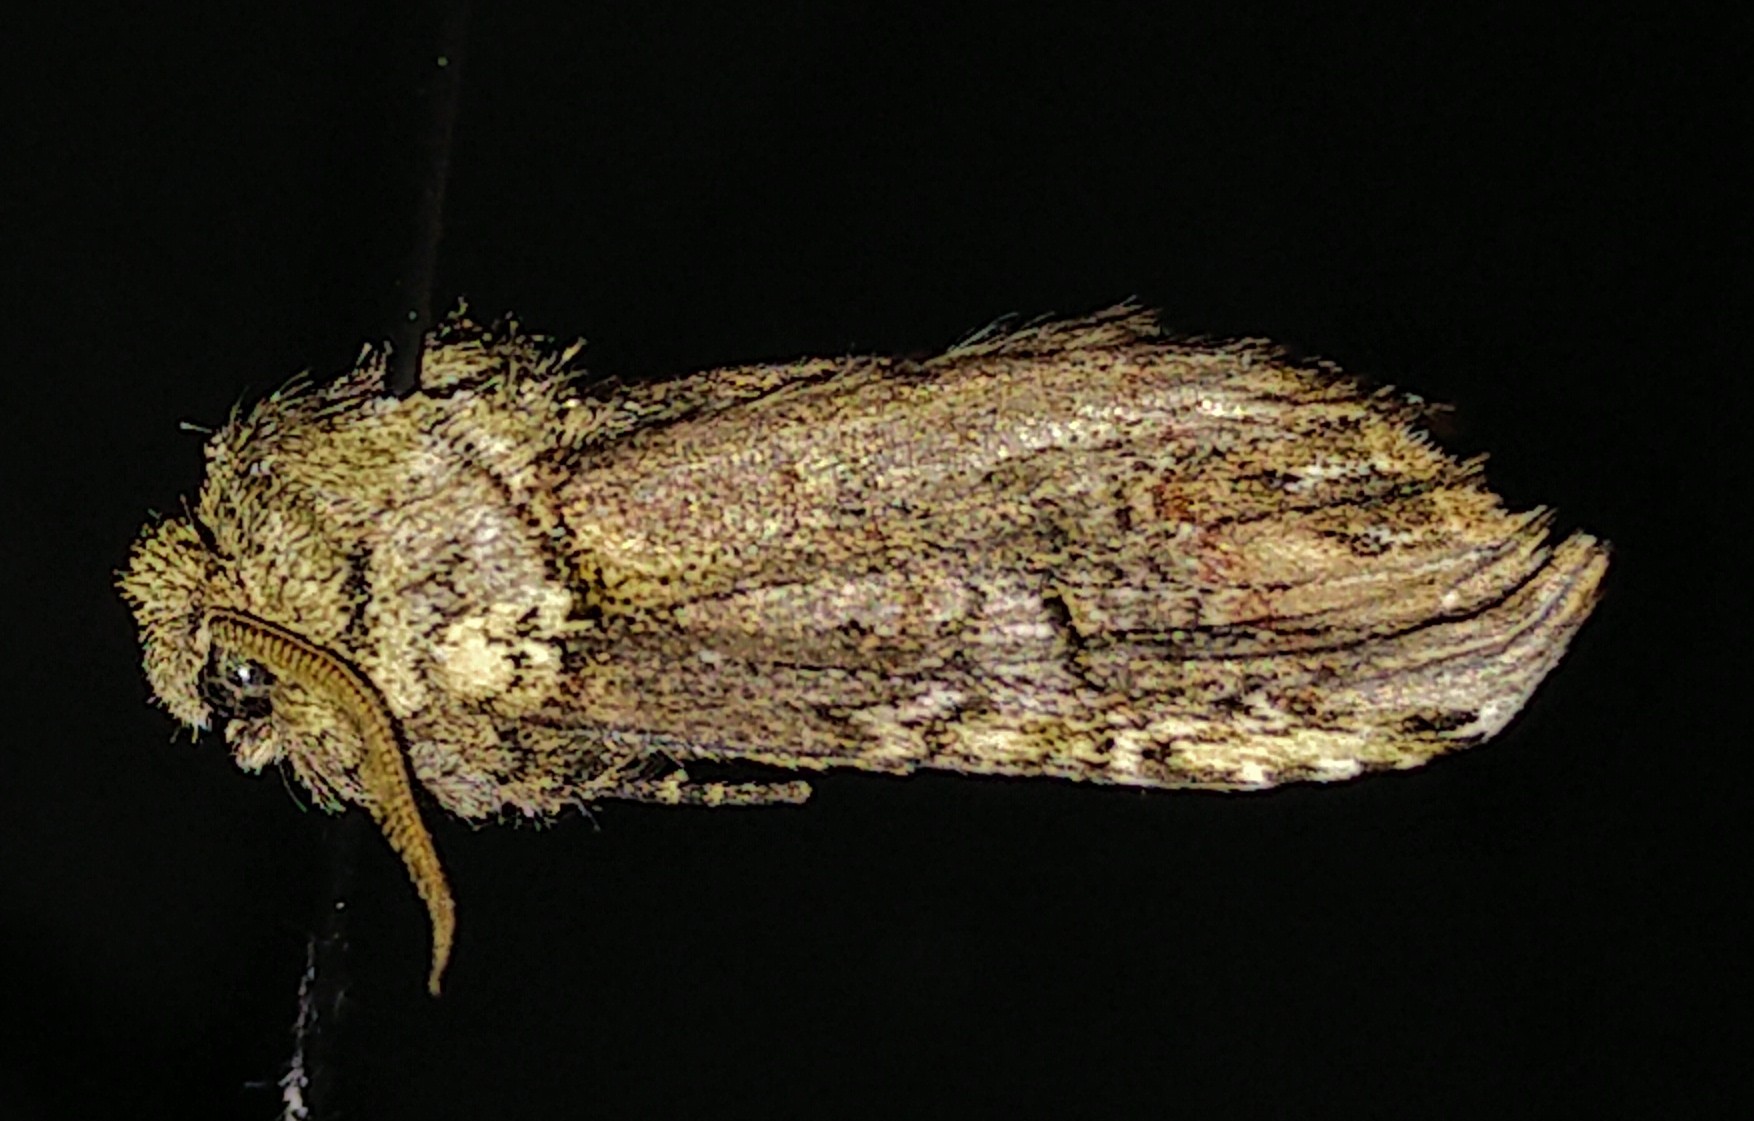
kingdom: Animalia
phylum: Arthropoda
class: Insecta
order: Lepidoptera
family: Notodontidae
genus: Schizura
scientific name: Schizura
